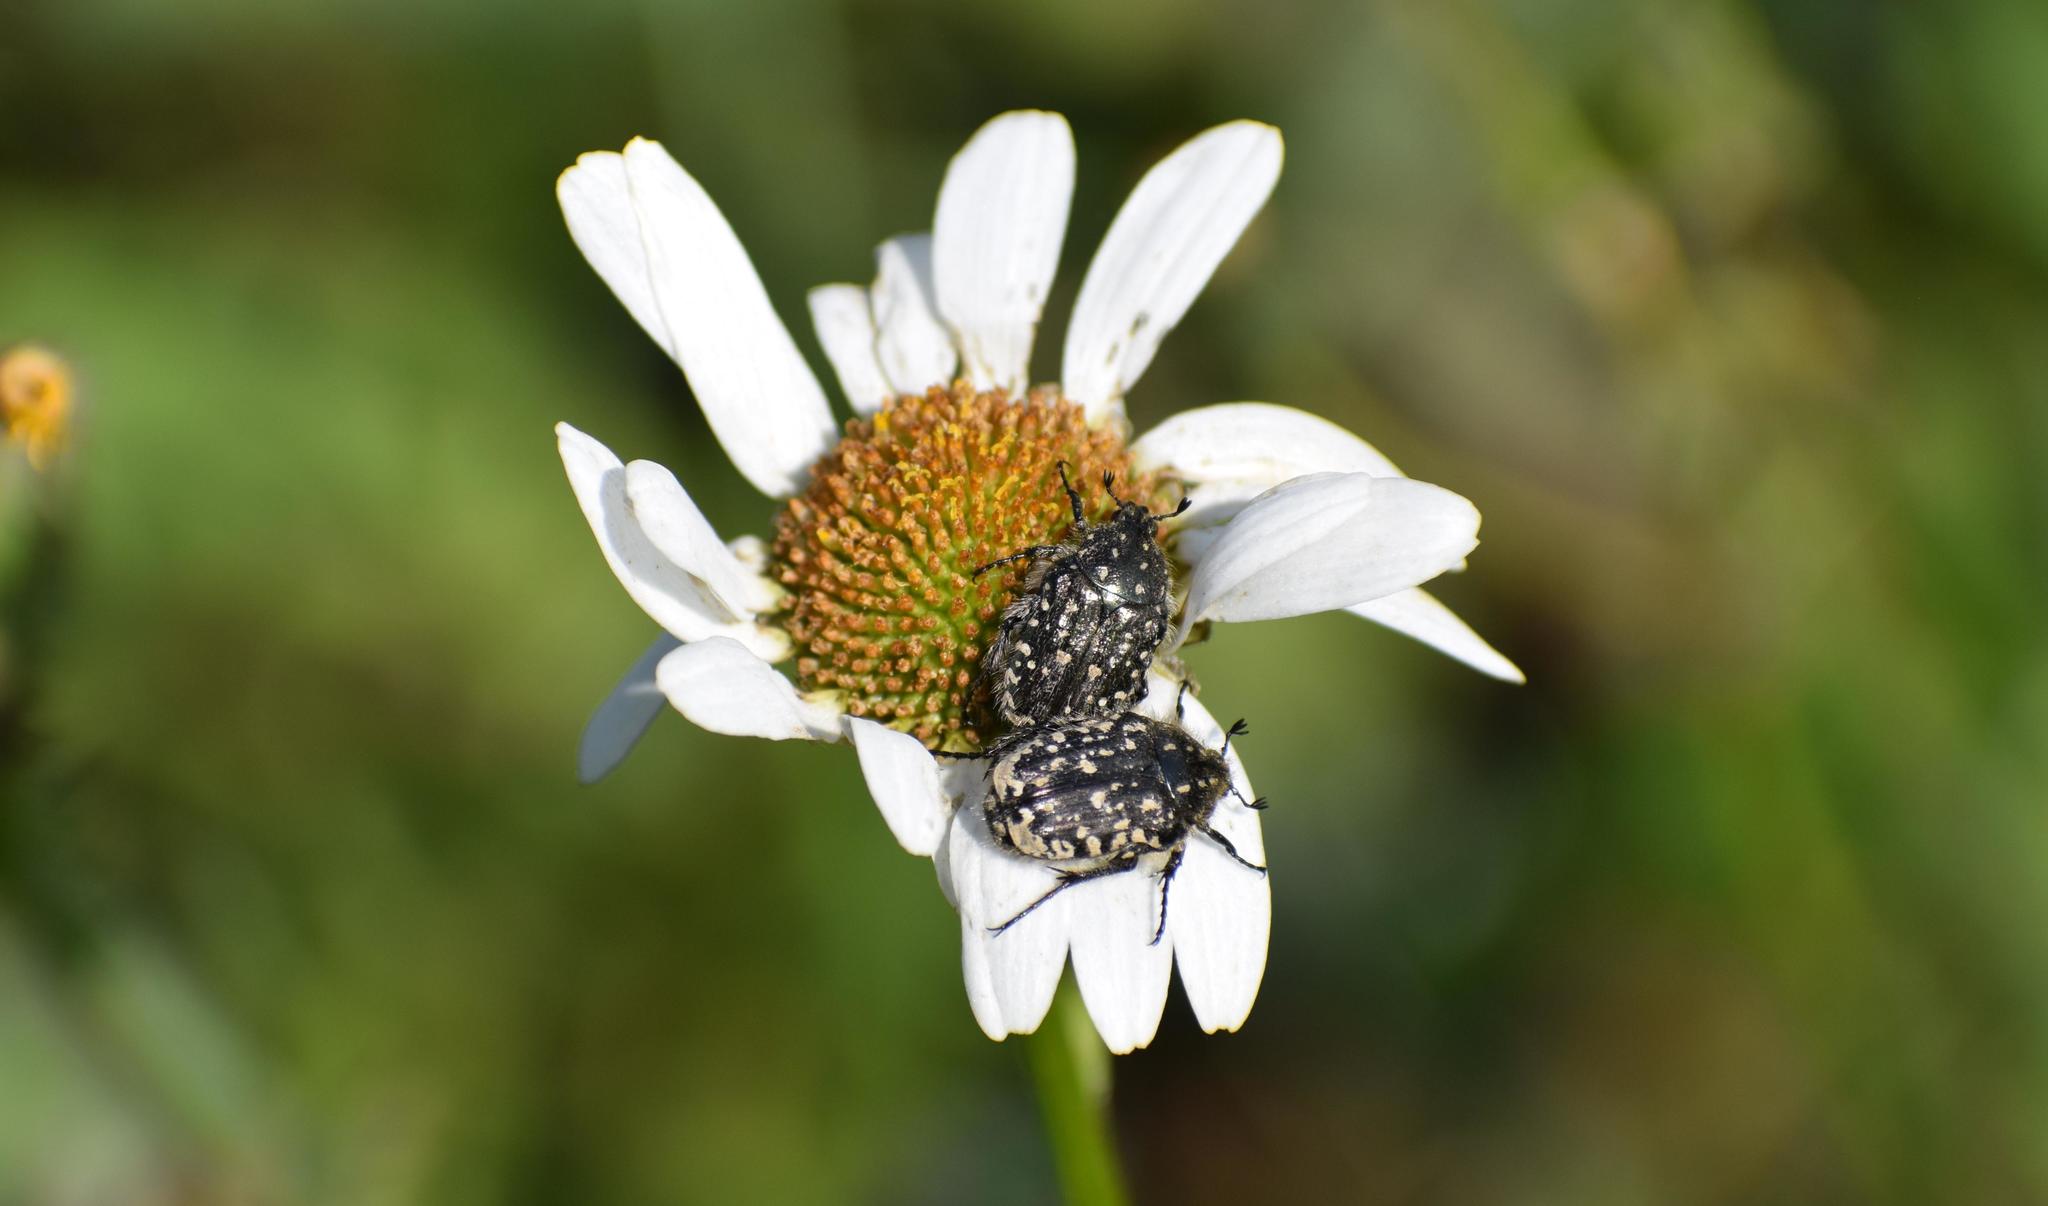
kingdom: Animalia
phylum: Arthropoda
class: Insecta
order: Coleoptera
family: Scarabaeidae
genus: Oxythyrea
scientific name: Oxythyrea funesta
